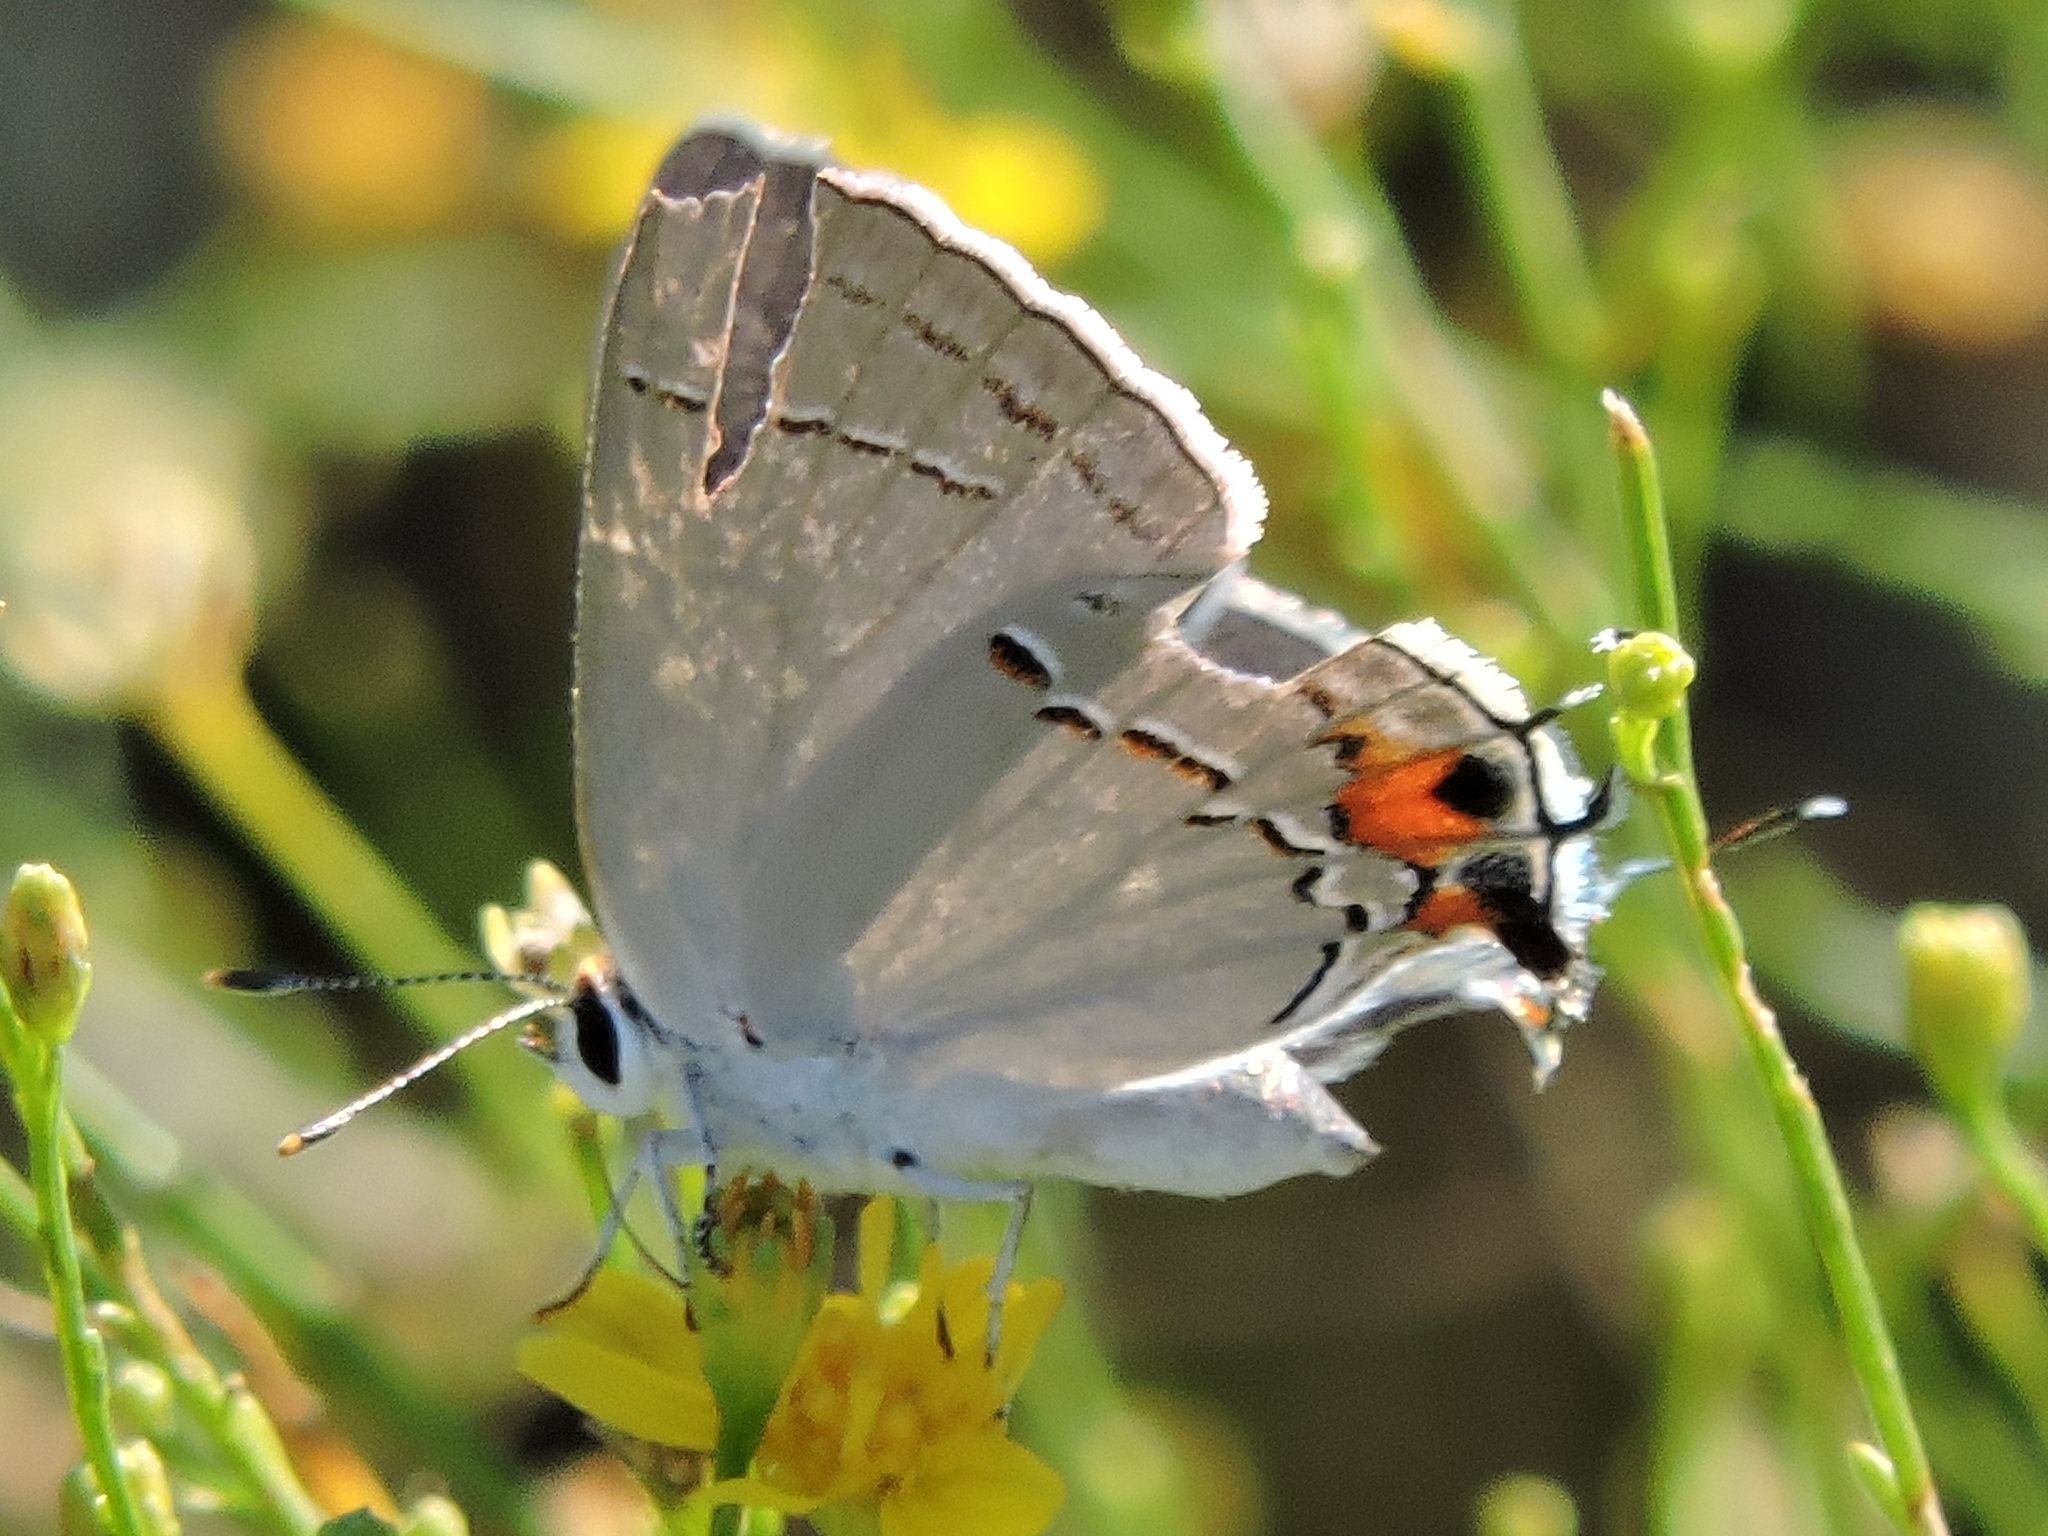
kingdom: Animalia
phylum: Arthropoda
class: Insecta
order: Lepidoptera
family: Lycaenidae
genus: Strymon
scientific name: Strymon melinus
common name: Gray hairstreak
